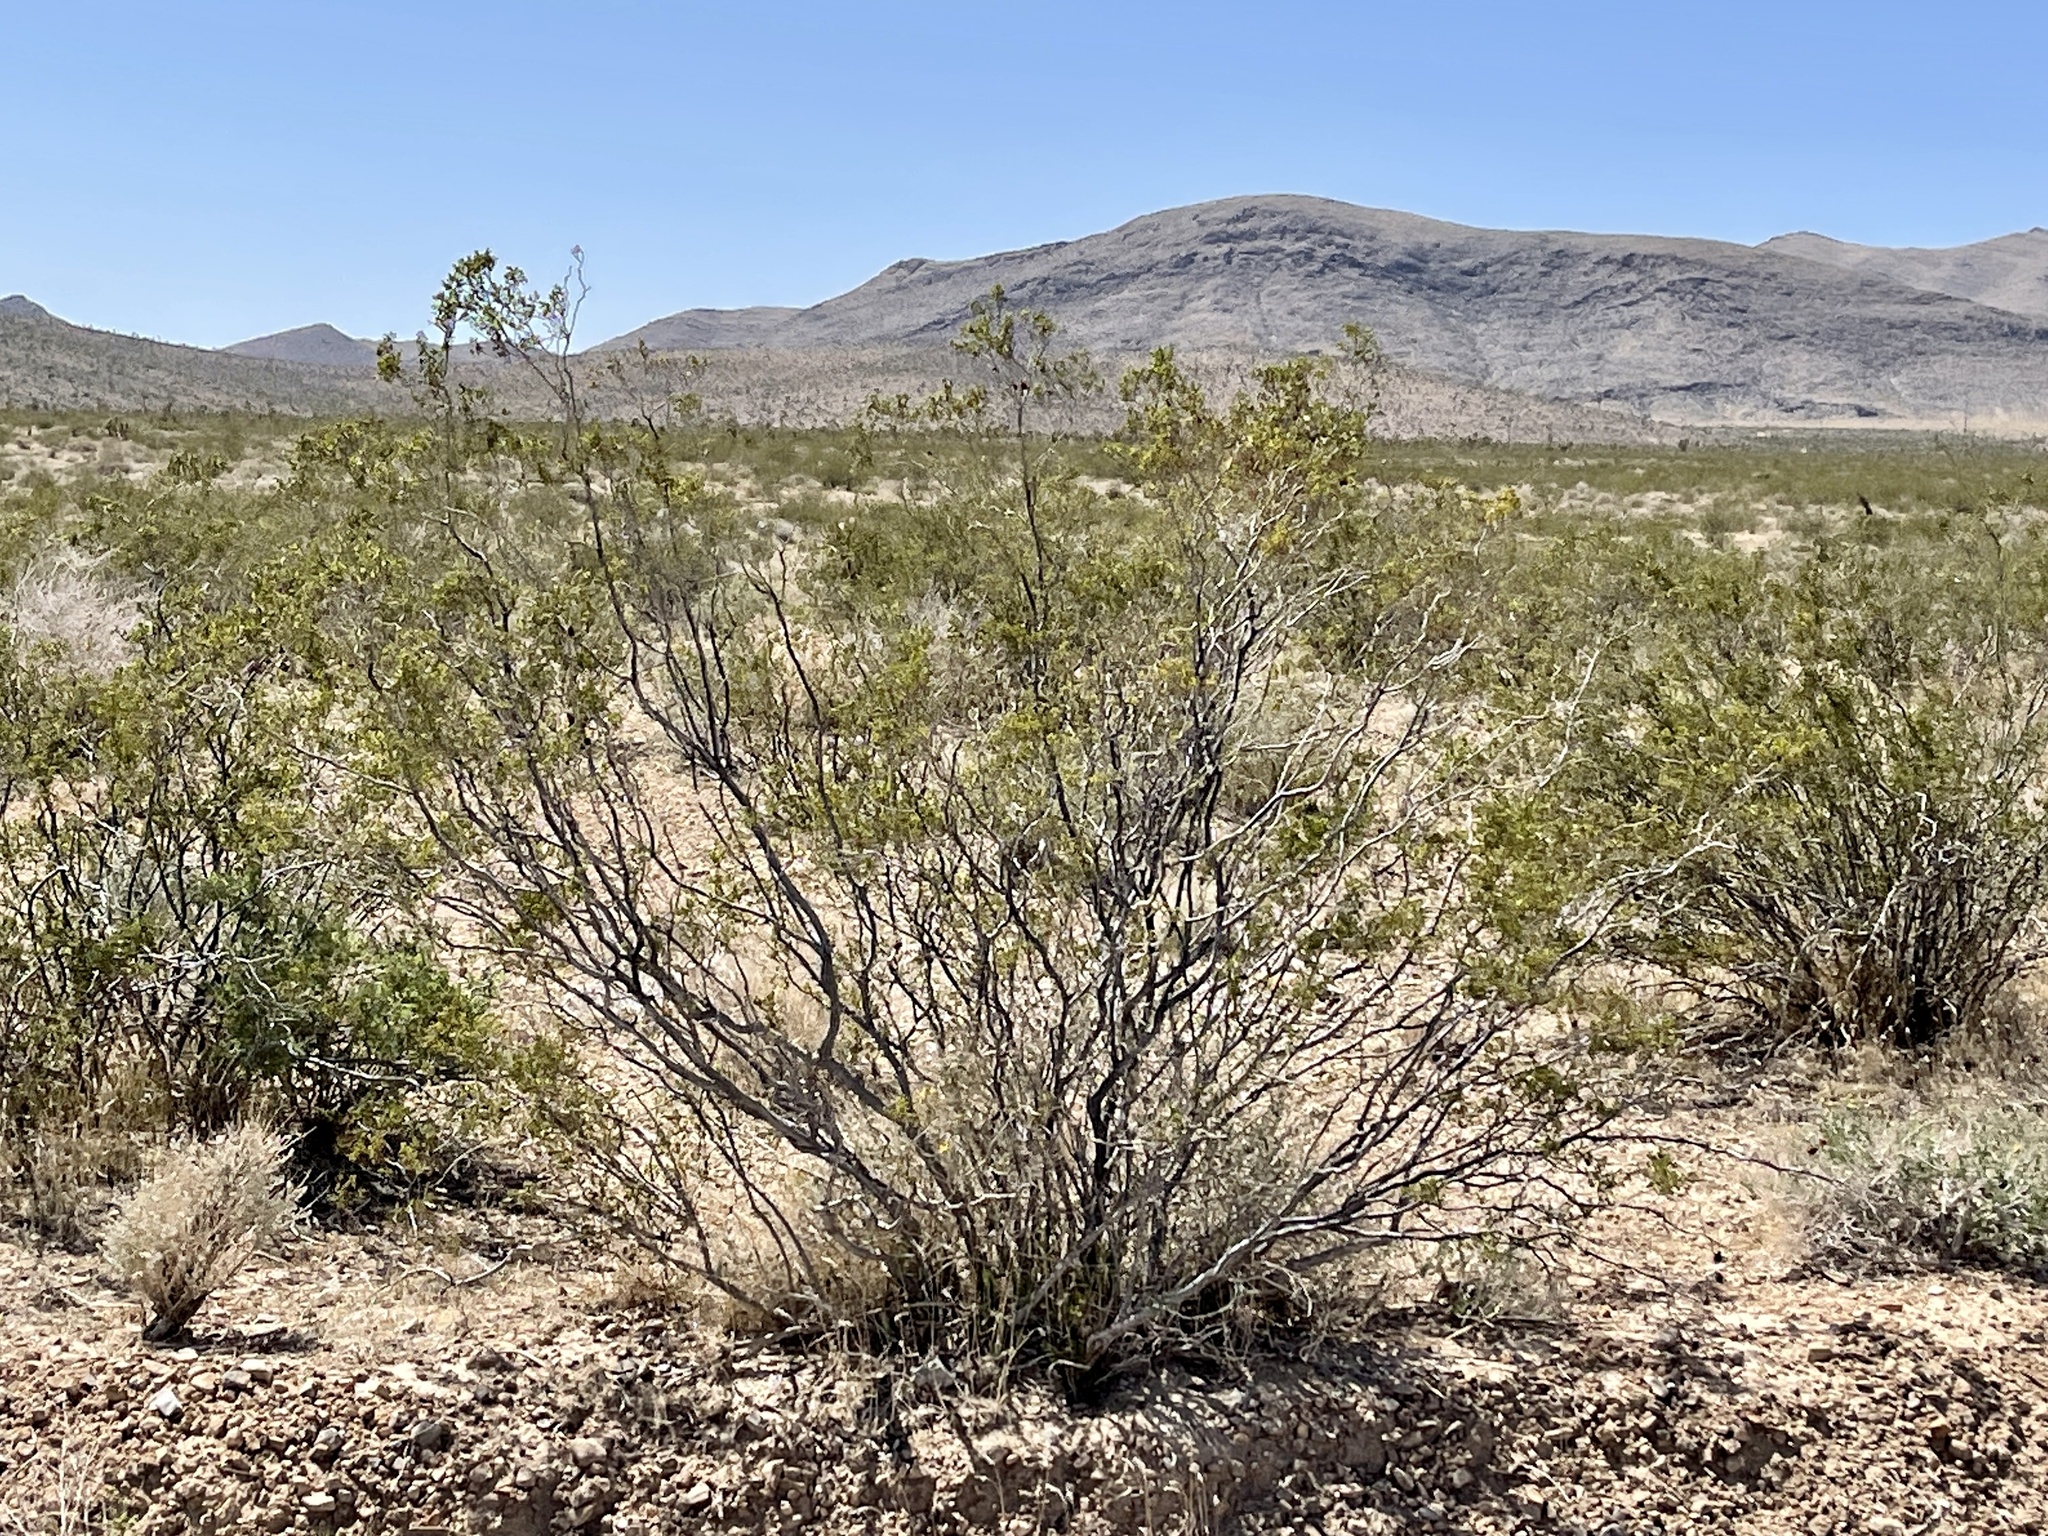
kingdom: Plantae
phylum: Tracheophyta
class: Magnoliopsida
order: Zygophyllales
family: Zygophyllaceae
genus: Larrea
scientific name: Larrea tridentata
